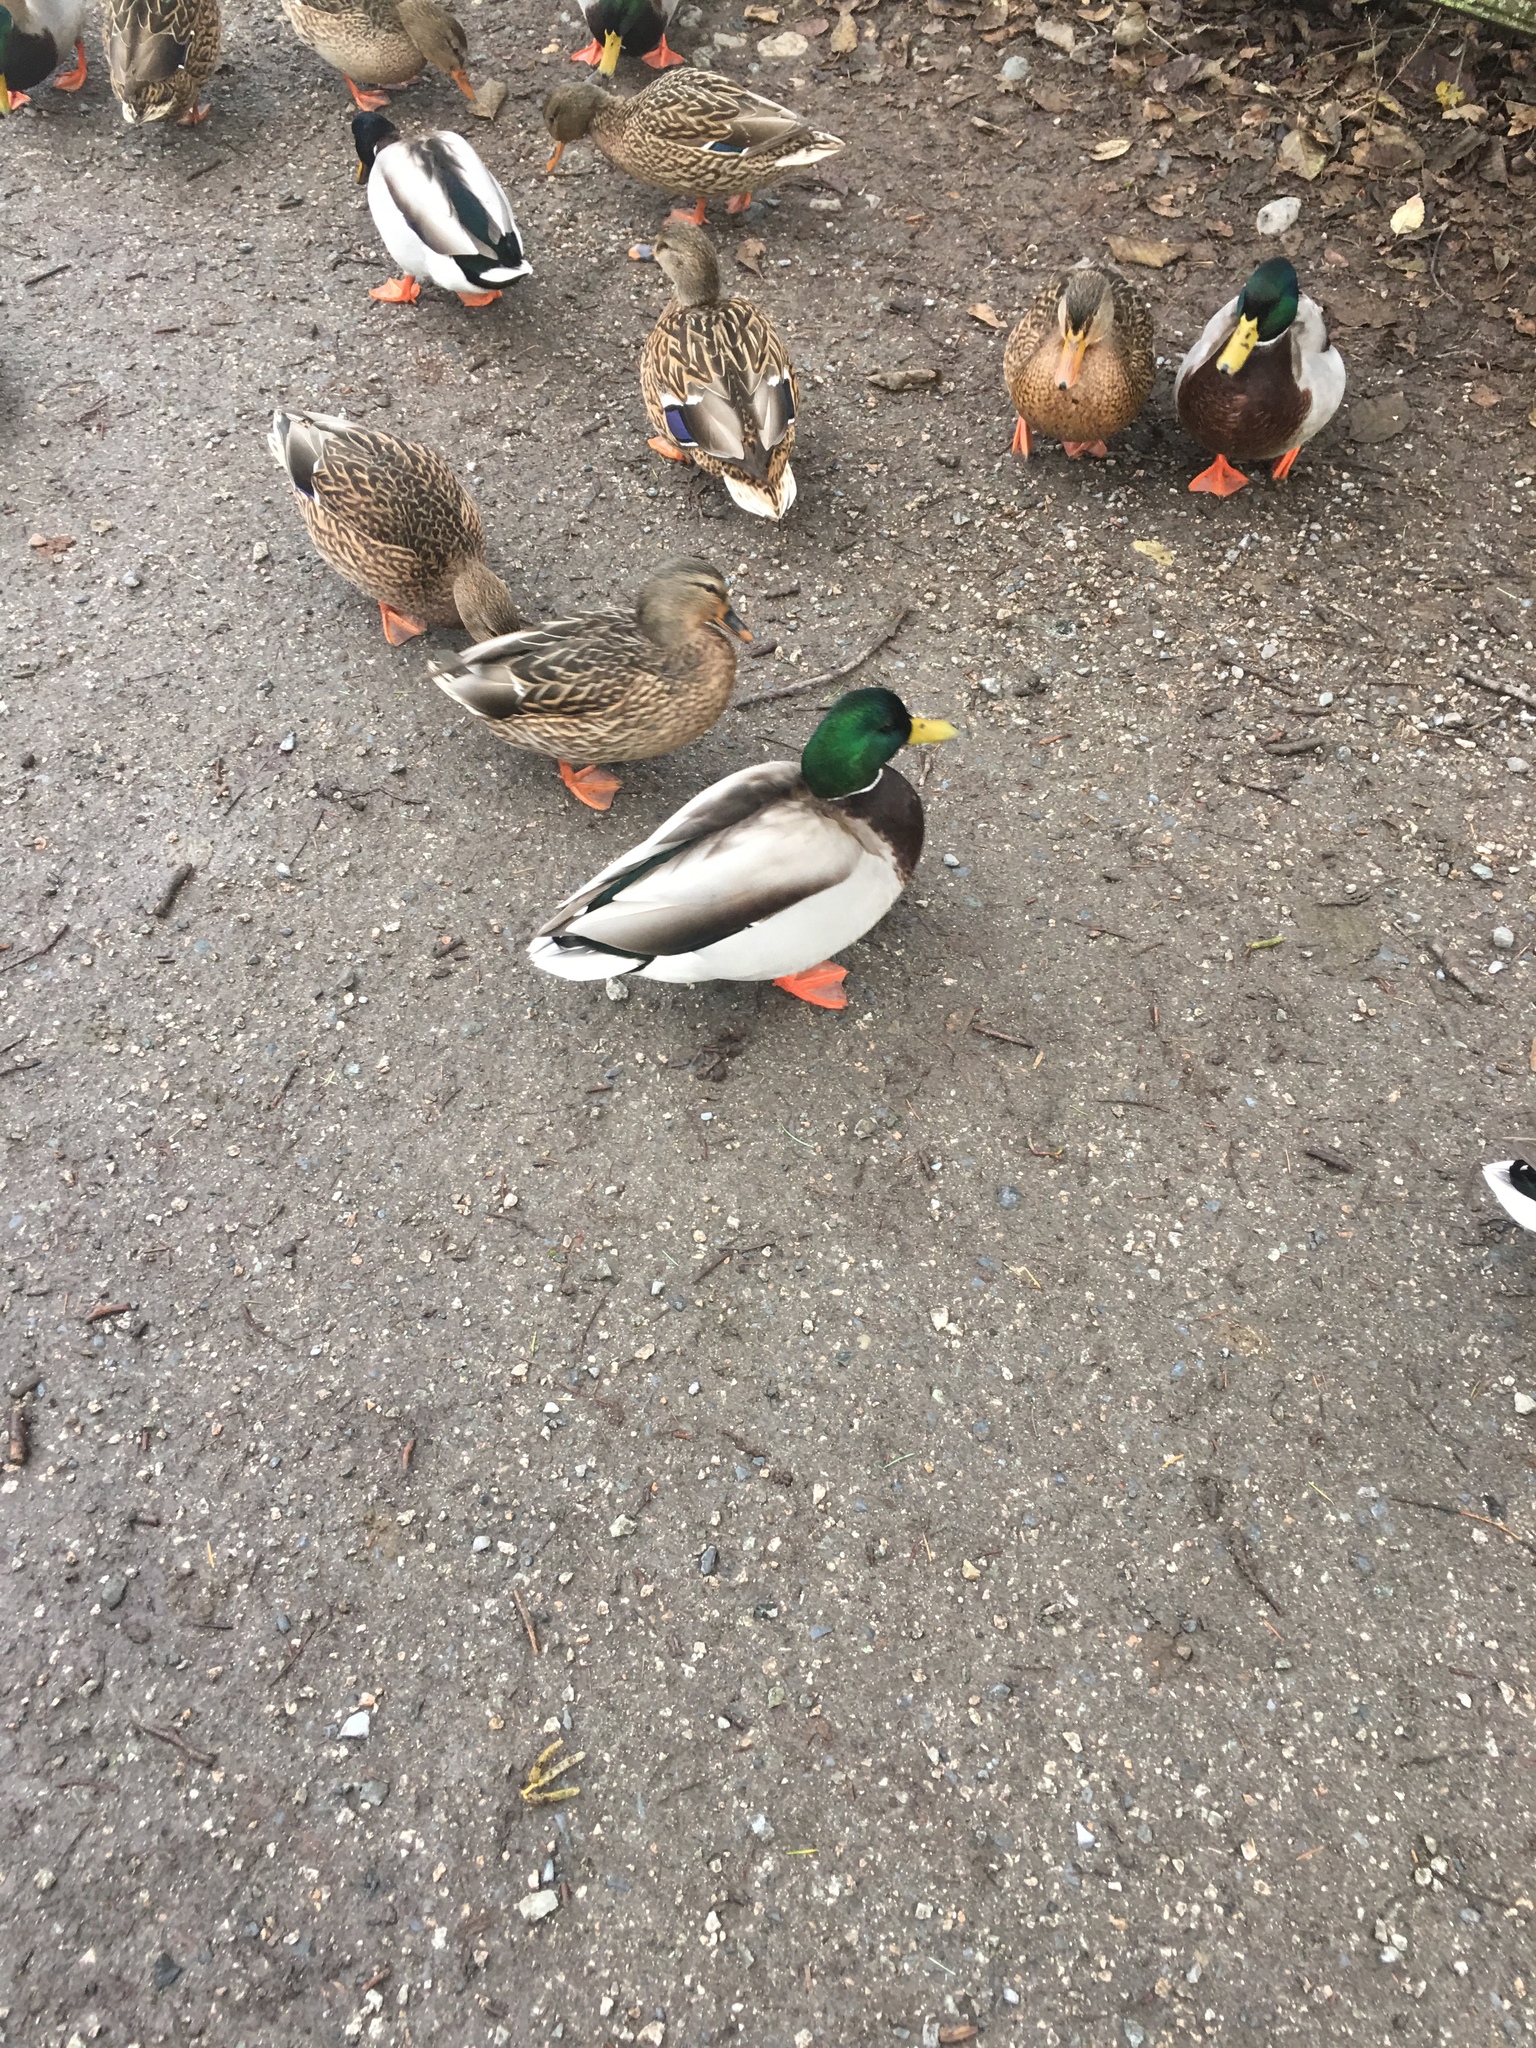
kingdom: Animalia
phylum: Chordata
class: Aves
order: Anseriformes
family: Anatidae
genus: Anas
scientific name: Anas platyrhynchos
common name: Mallard
